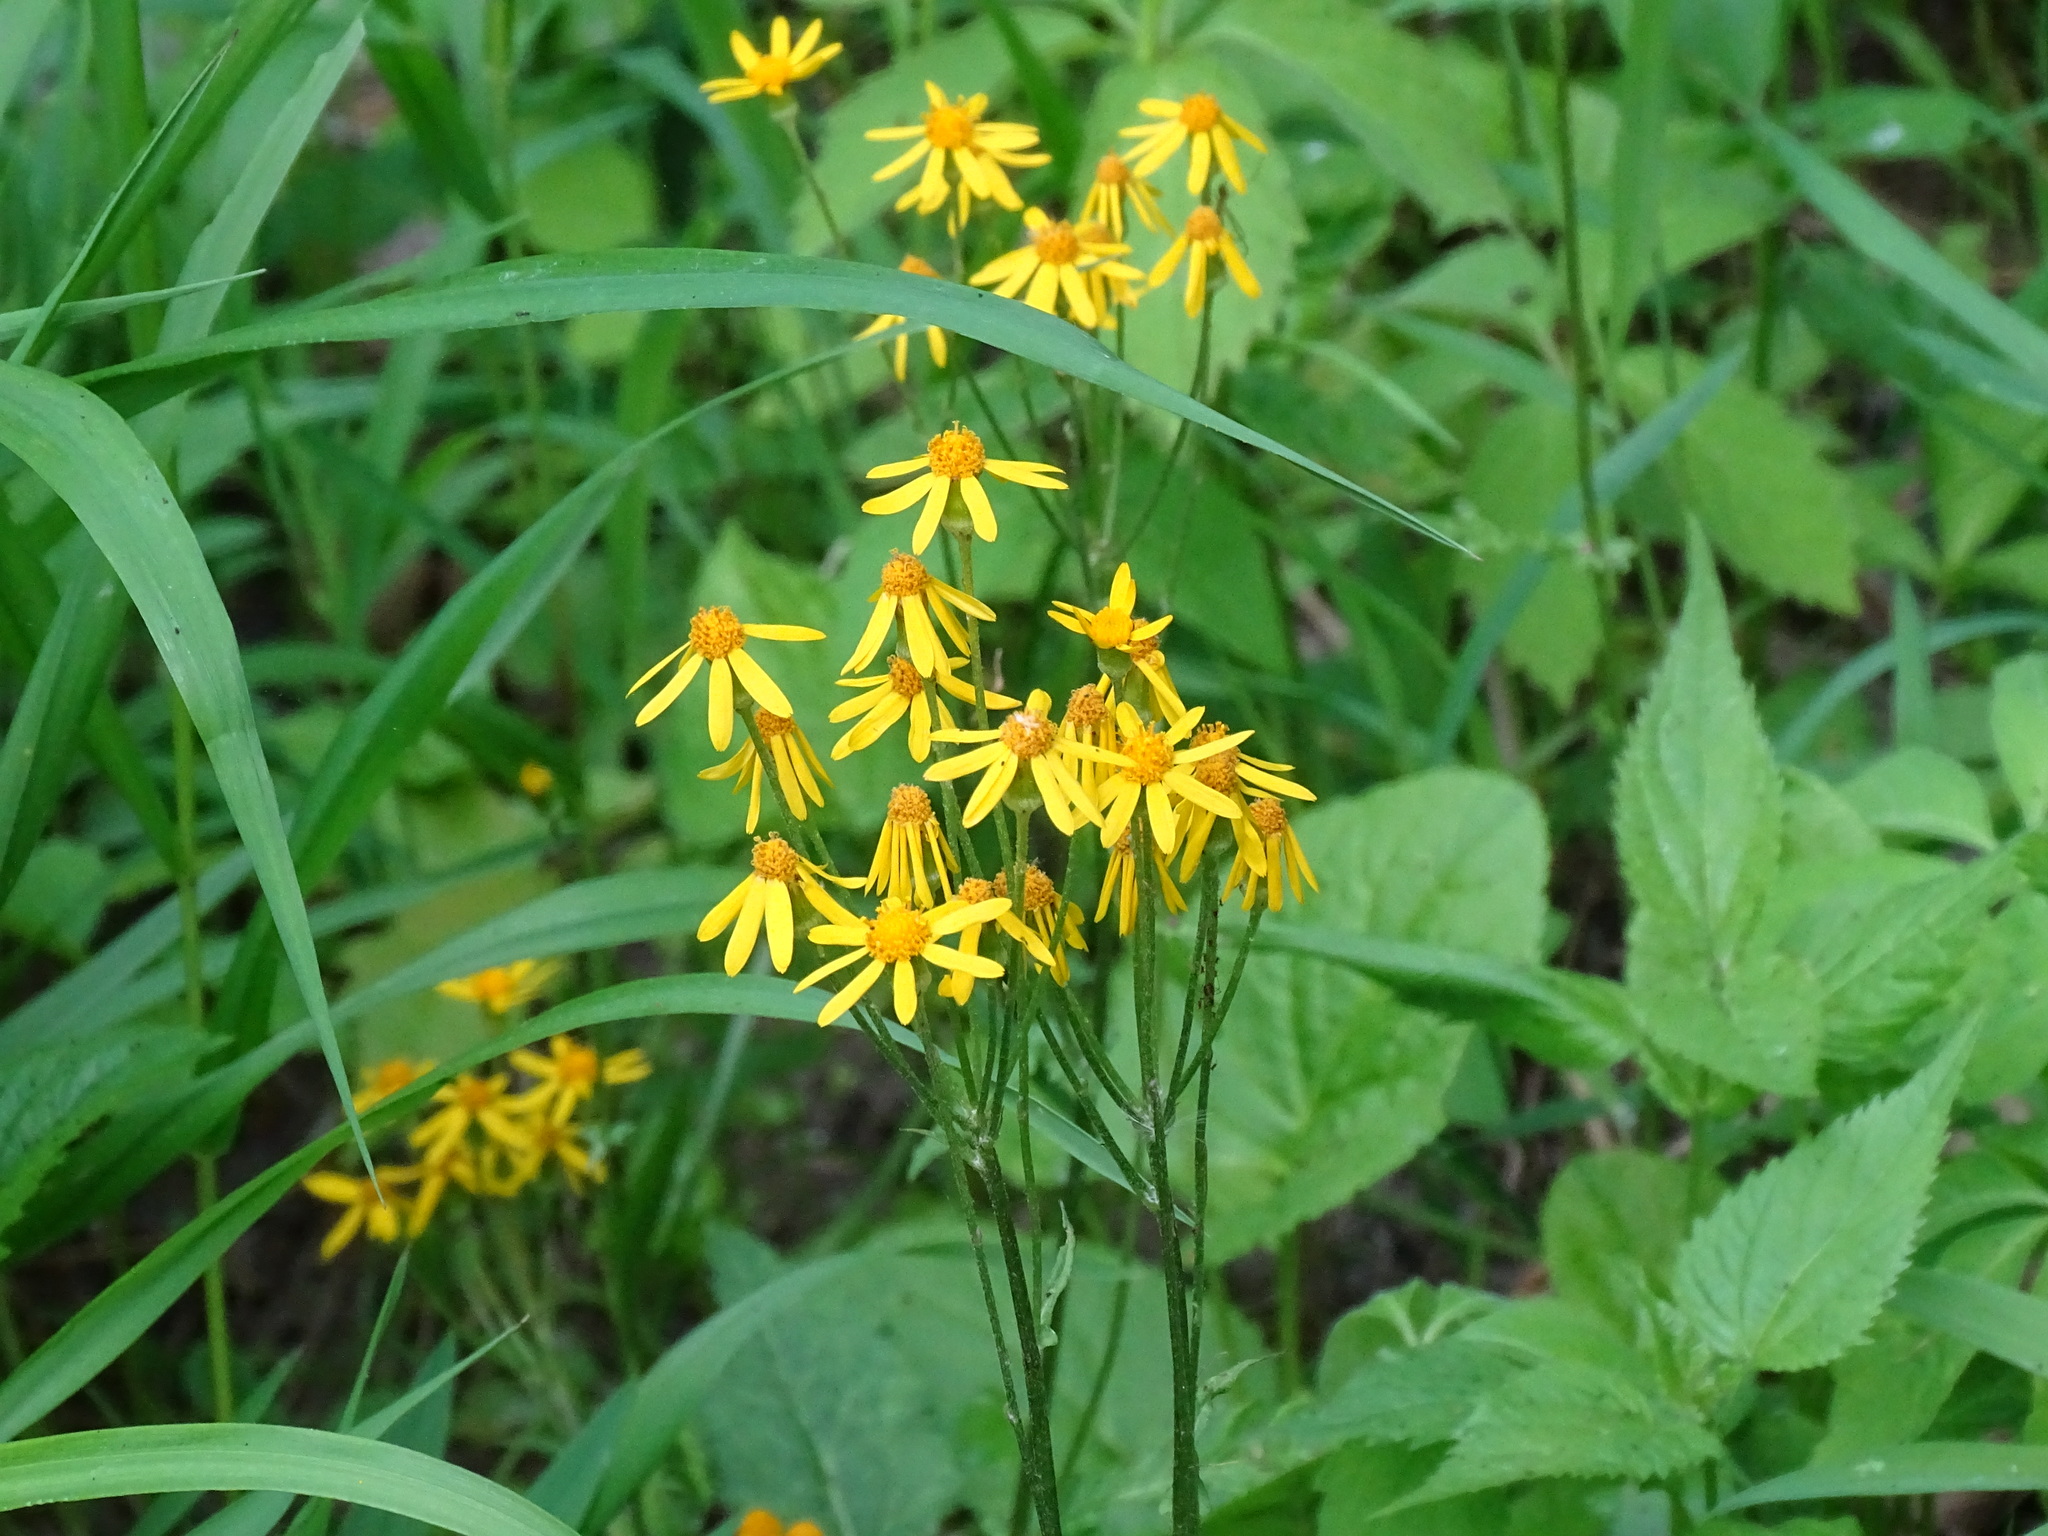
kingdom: Plantae
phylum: Tracheophyta
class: Magnoliopsida
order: Asterales
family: Asteraceae
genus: Packera
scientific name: Packera aurea
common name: Golden groundsel
